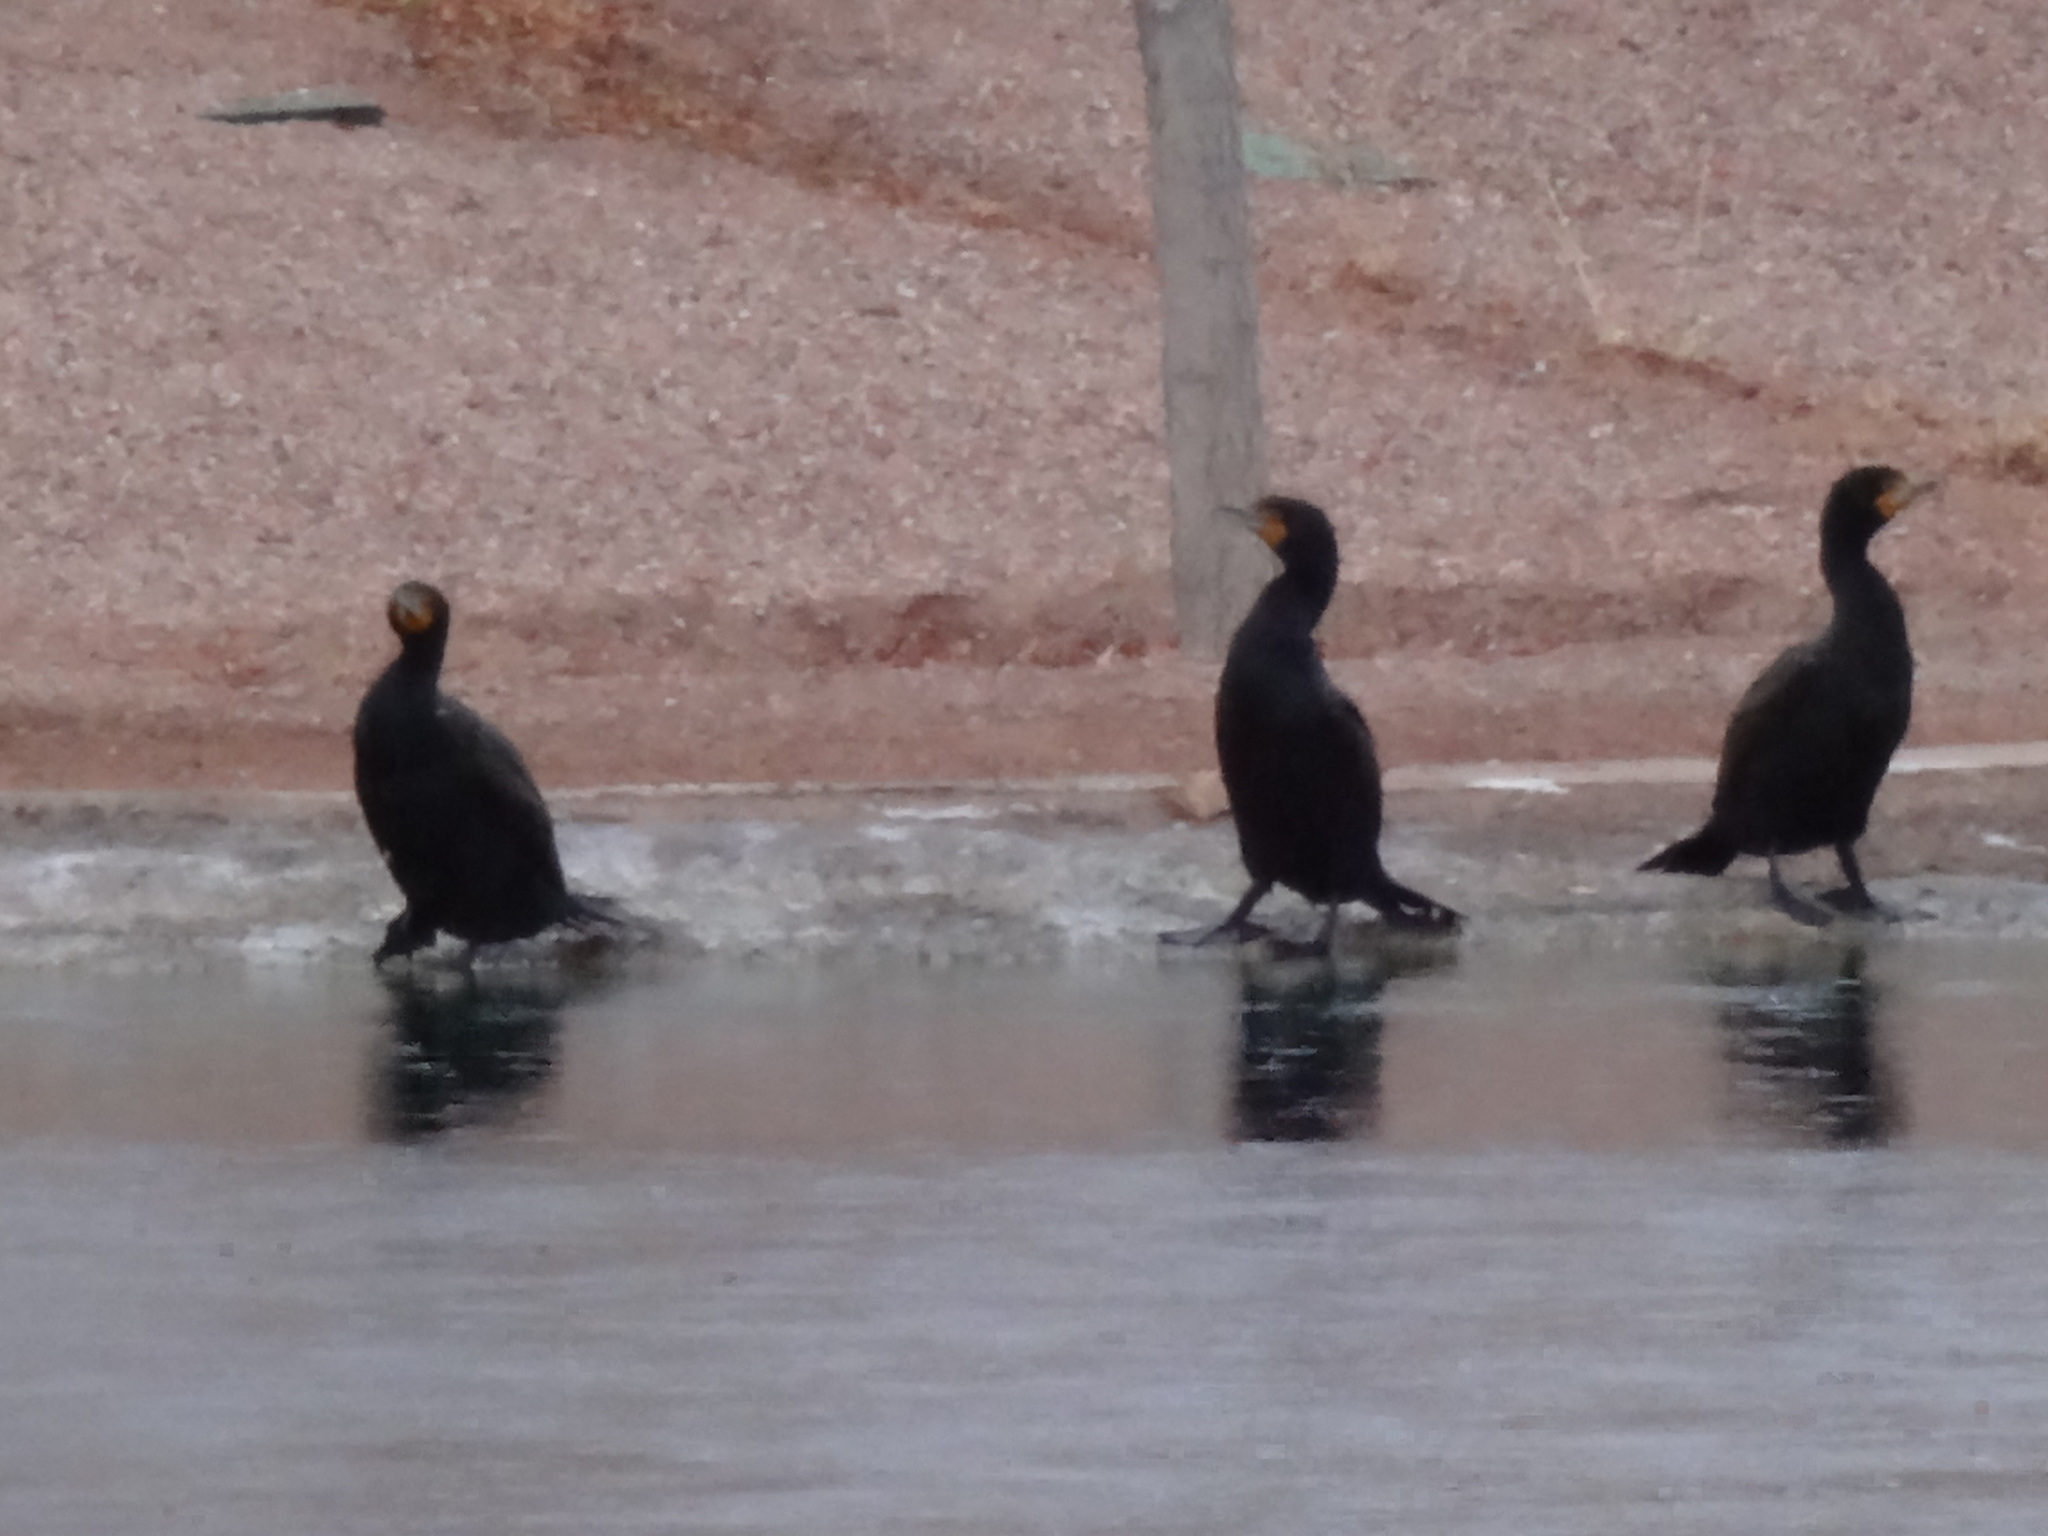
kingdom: Animalia
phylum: Chordata
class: Aves
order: Suliformes
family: Phalacrocoracidae
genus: Phalacrocorax
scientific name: Phalacrocorax auritus
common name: Double-crested cormorant
